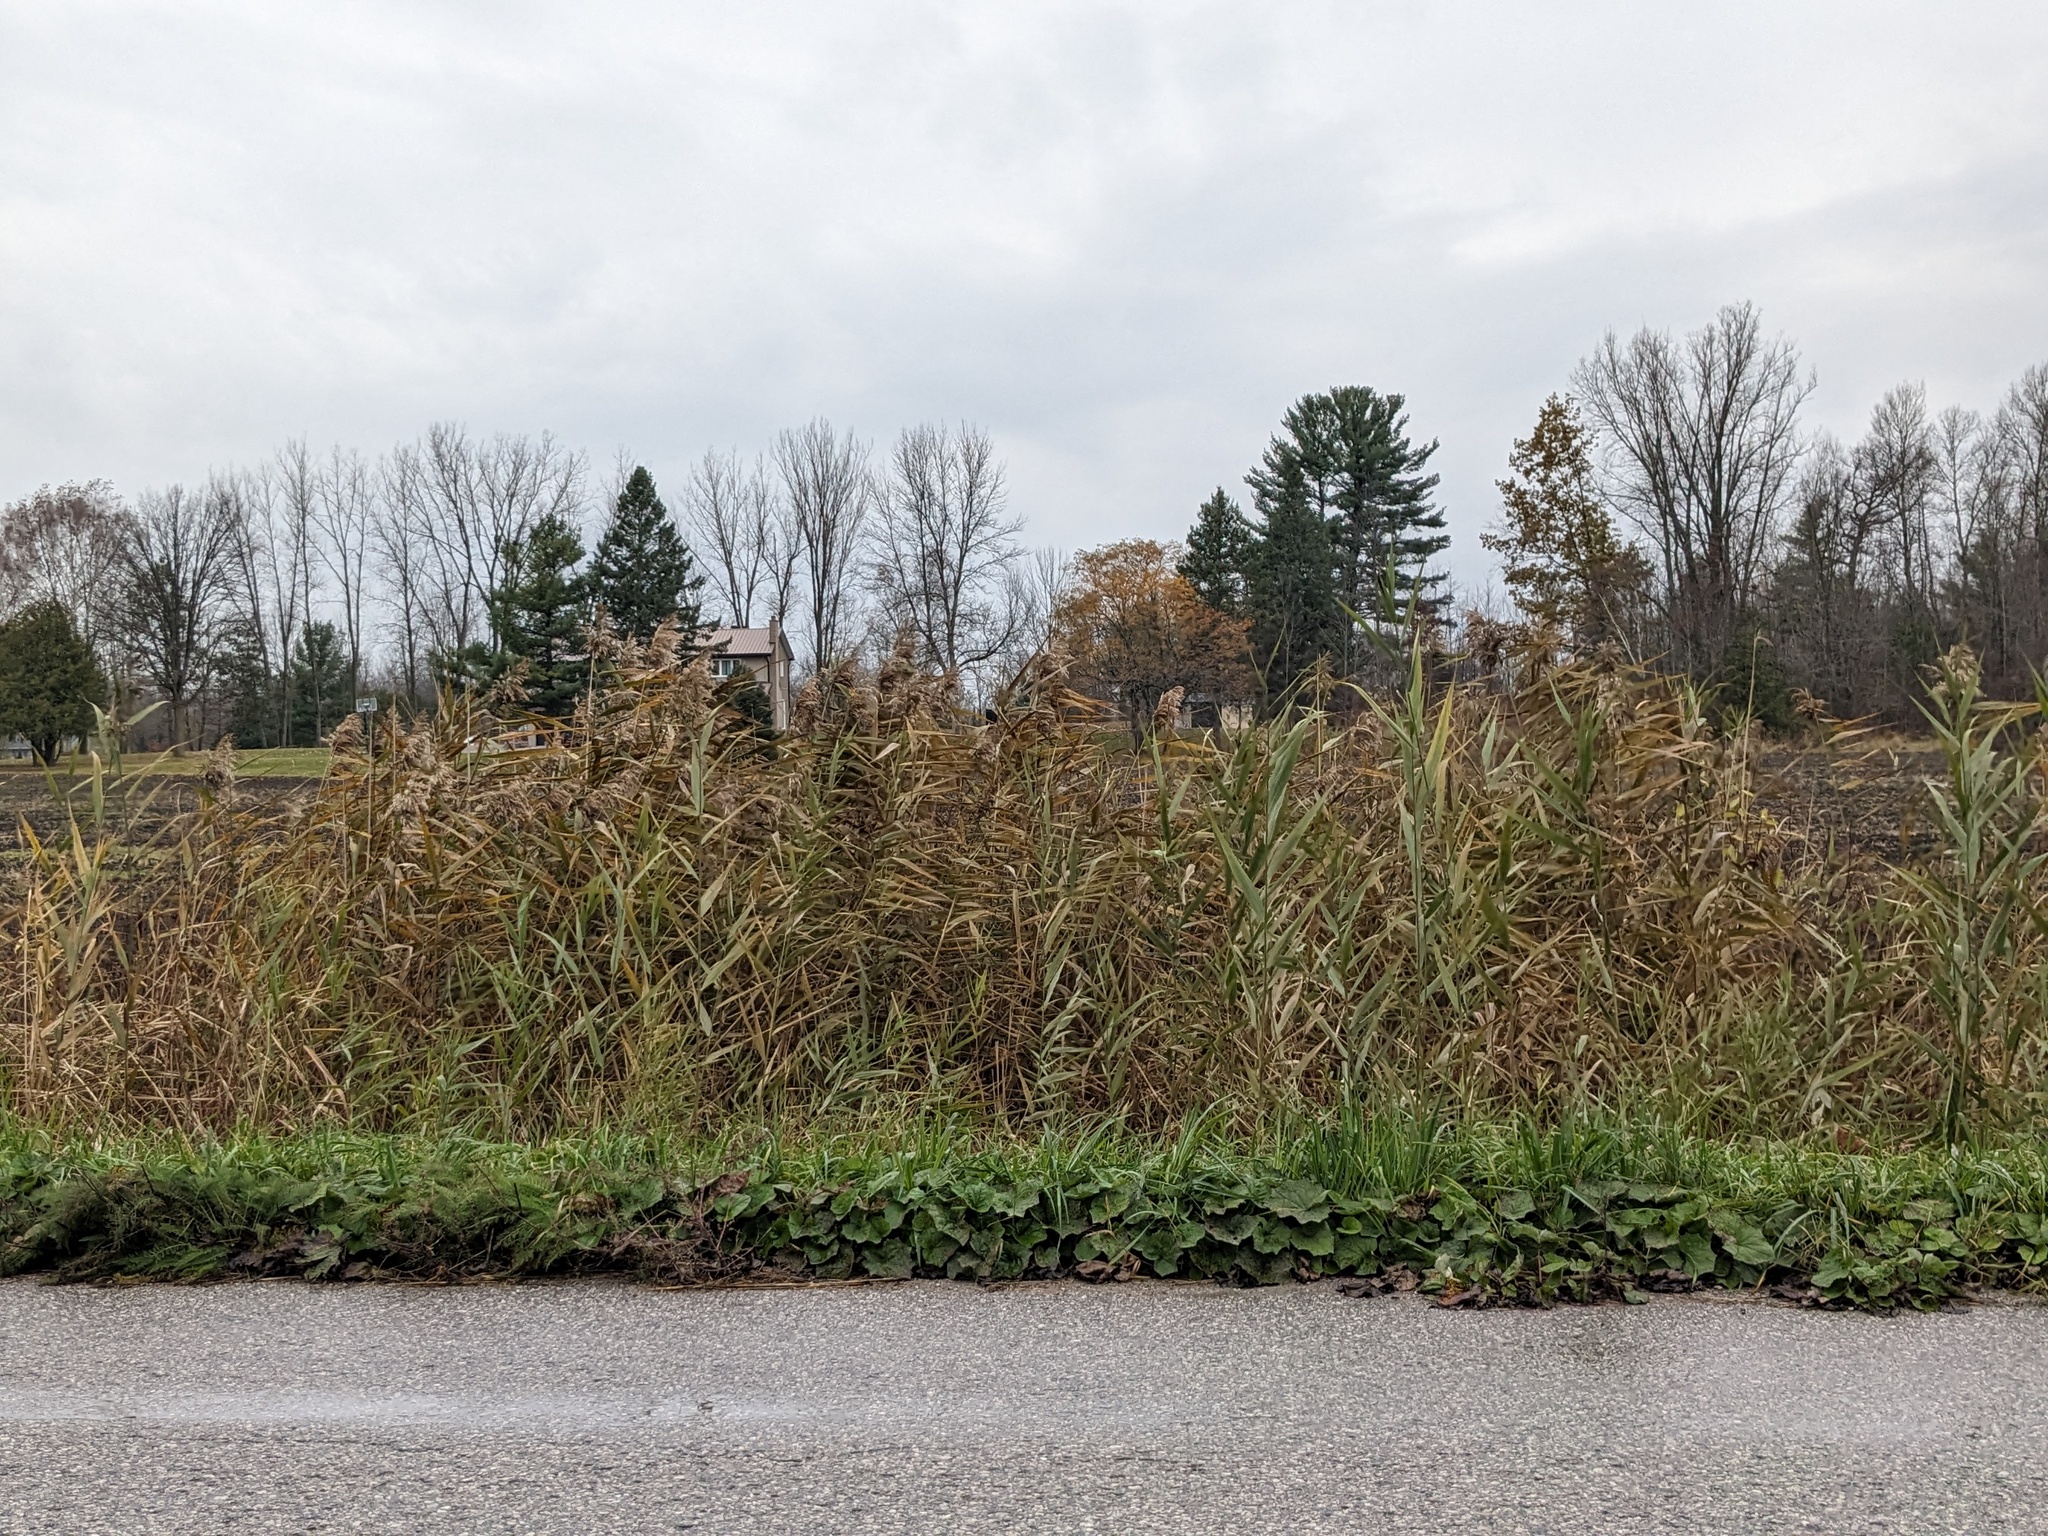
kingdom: Plantae
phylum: Tracheophyta
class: Liliopsida
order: Poales
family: Poaceae
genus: Phragmites
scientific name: Phragmites australis
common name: Common reed
